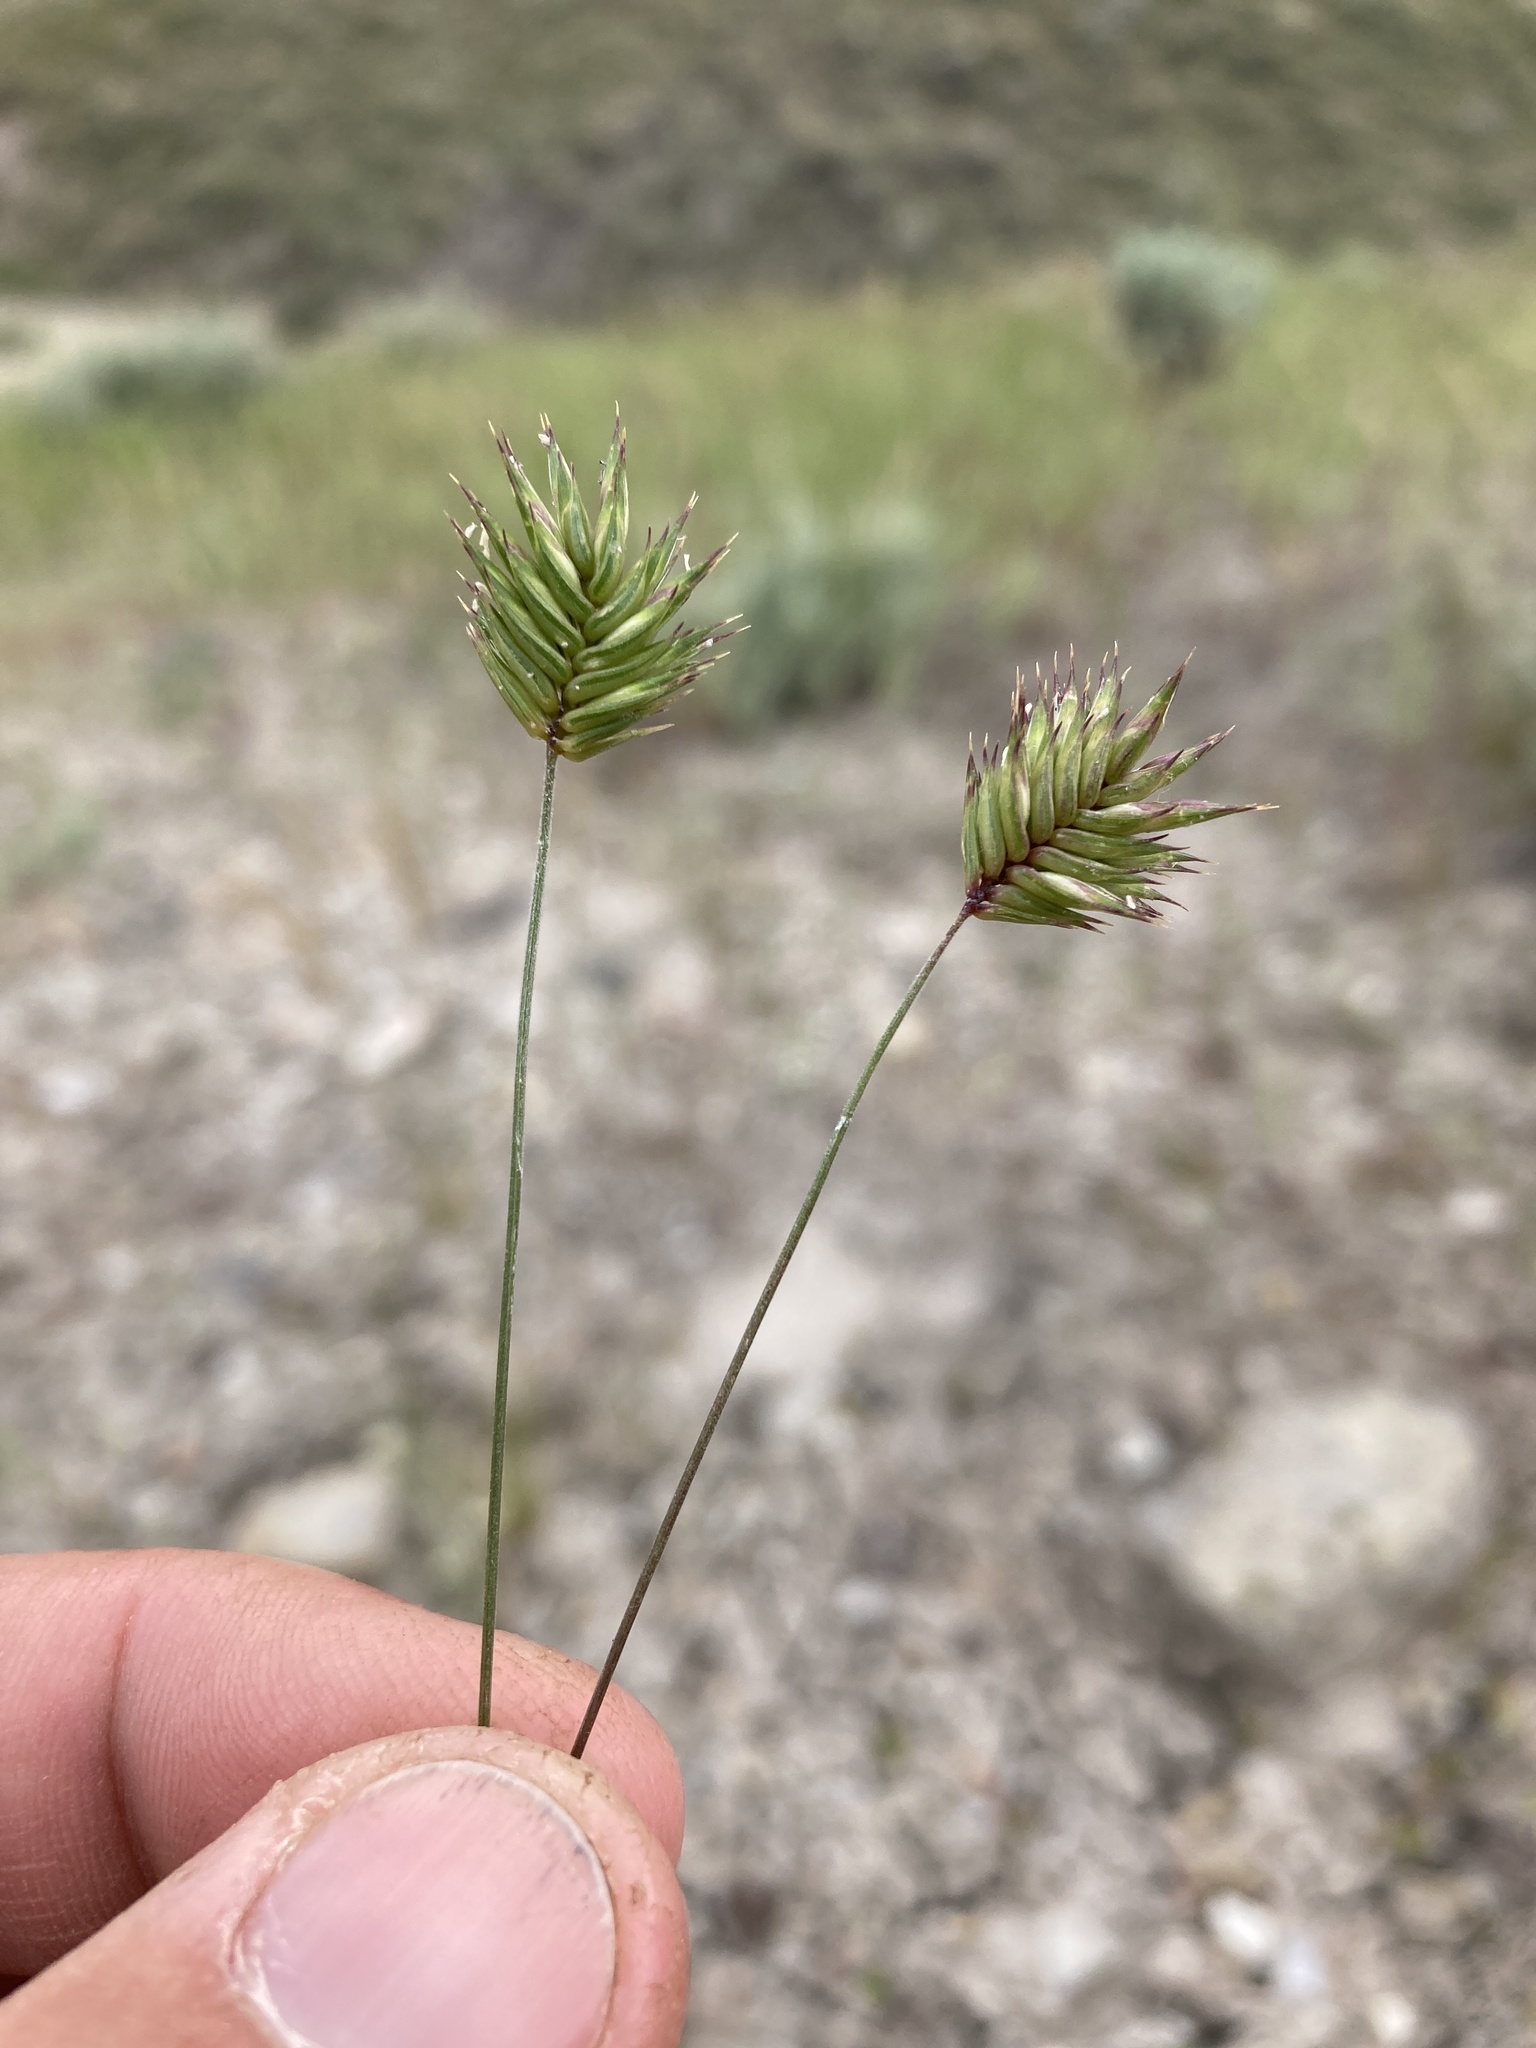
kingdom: Plantae
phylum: Tracheophyta
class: Liliopsida
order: Poales
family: Poaceae
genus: Eremopyrum
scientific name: Eremopyrum triticeum
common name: Annual wheatgrass
